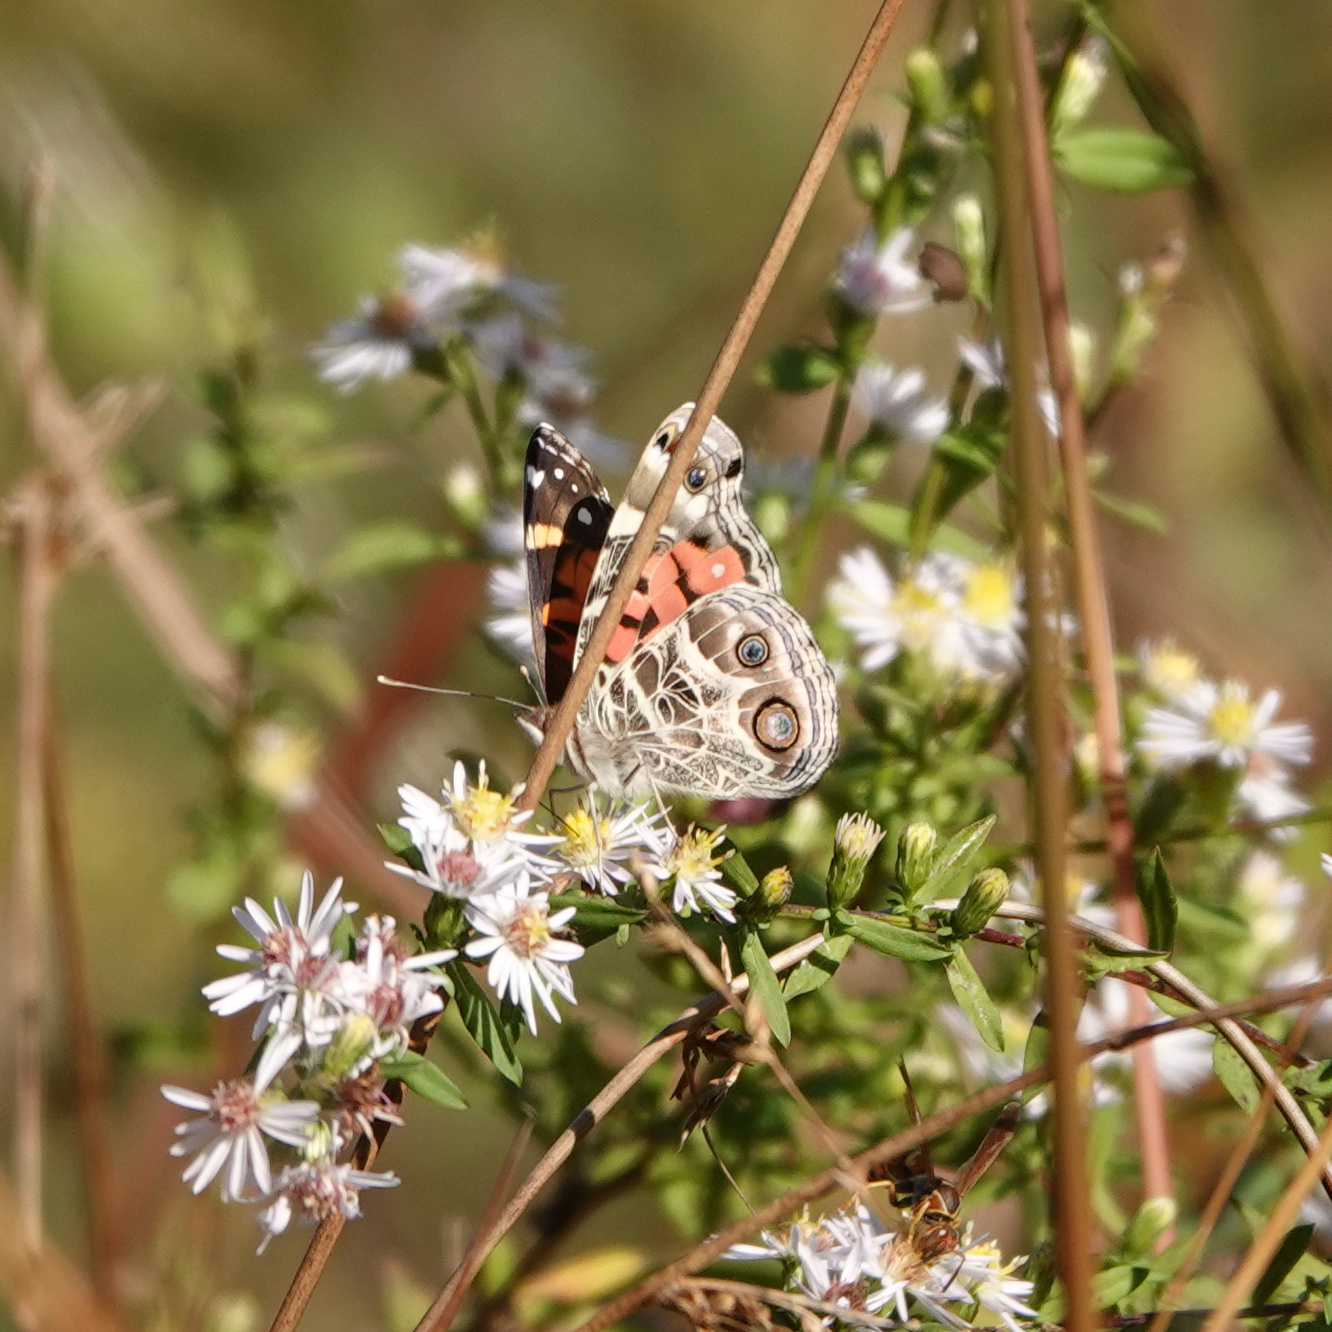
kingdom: Animalia
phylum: Arthropoda
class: Insecta
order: Lepidoptera
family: Nymphalidae
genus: Vanessa
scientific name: Vanessa virginiensis
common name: American lady
